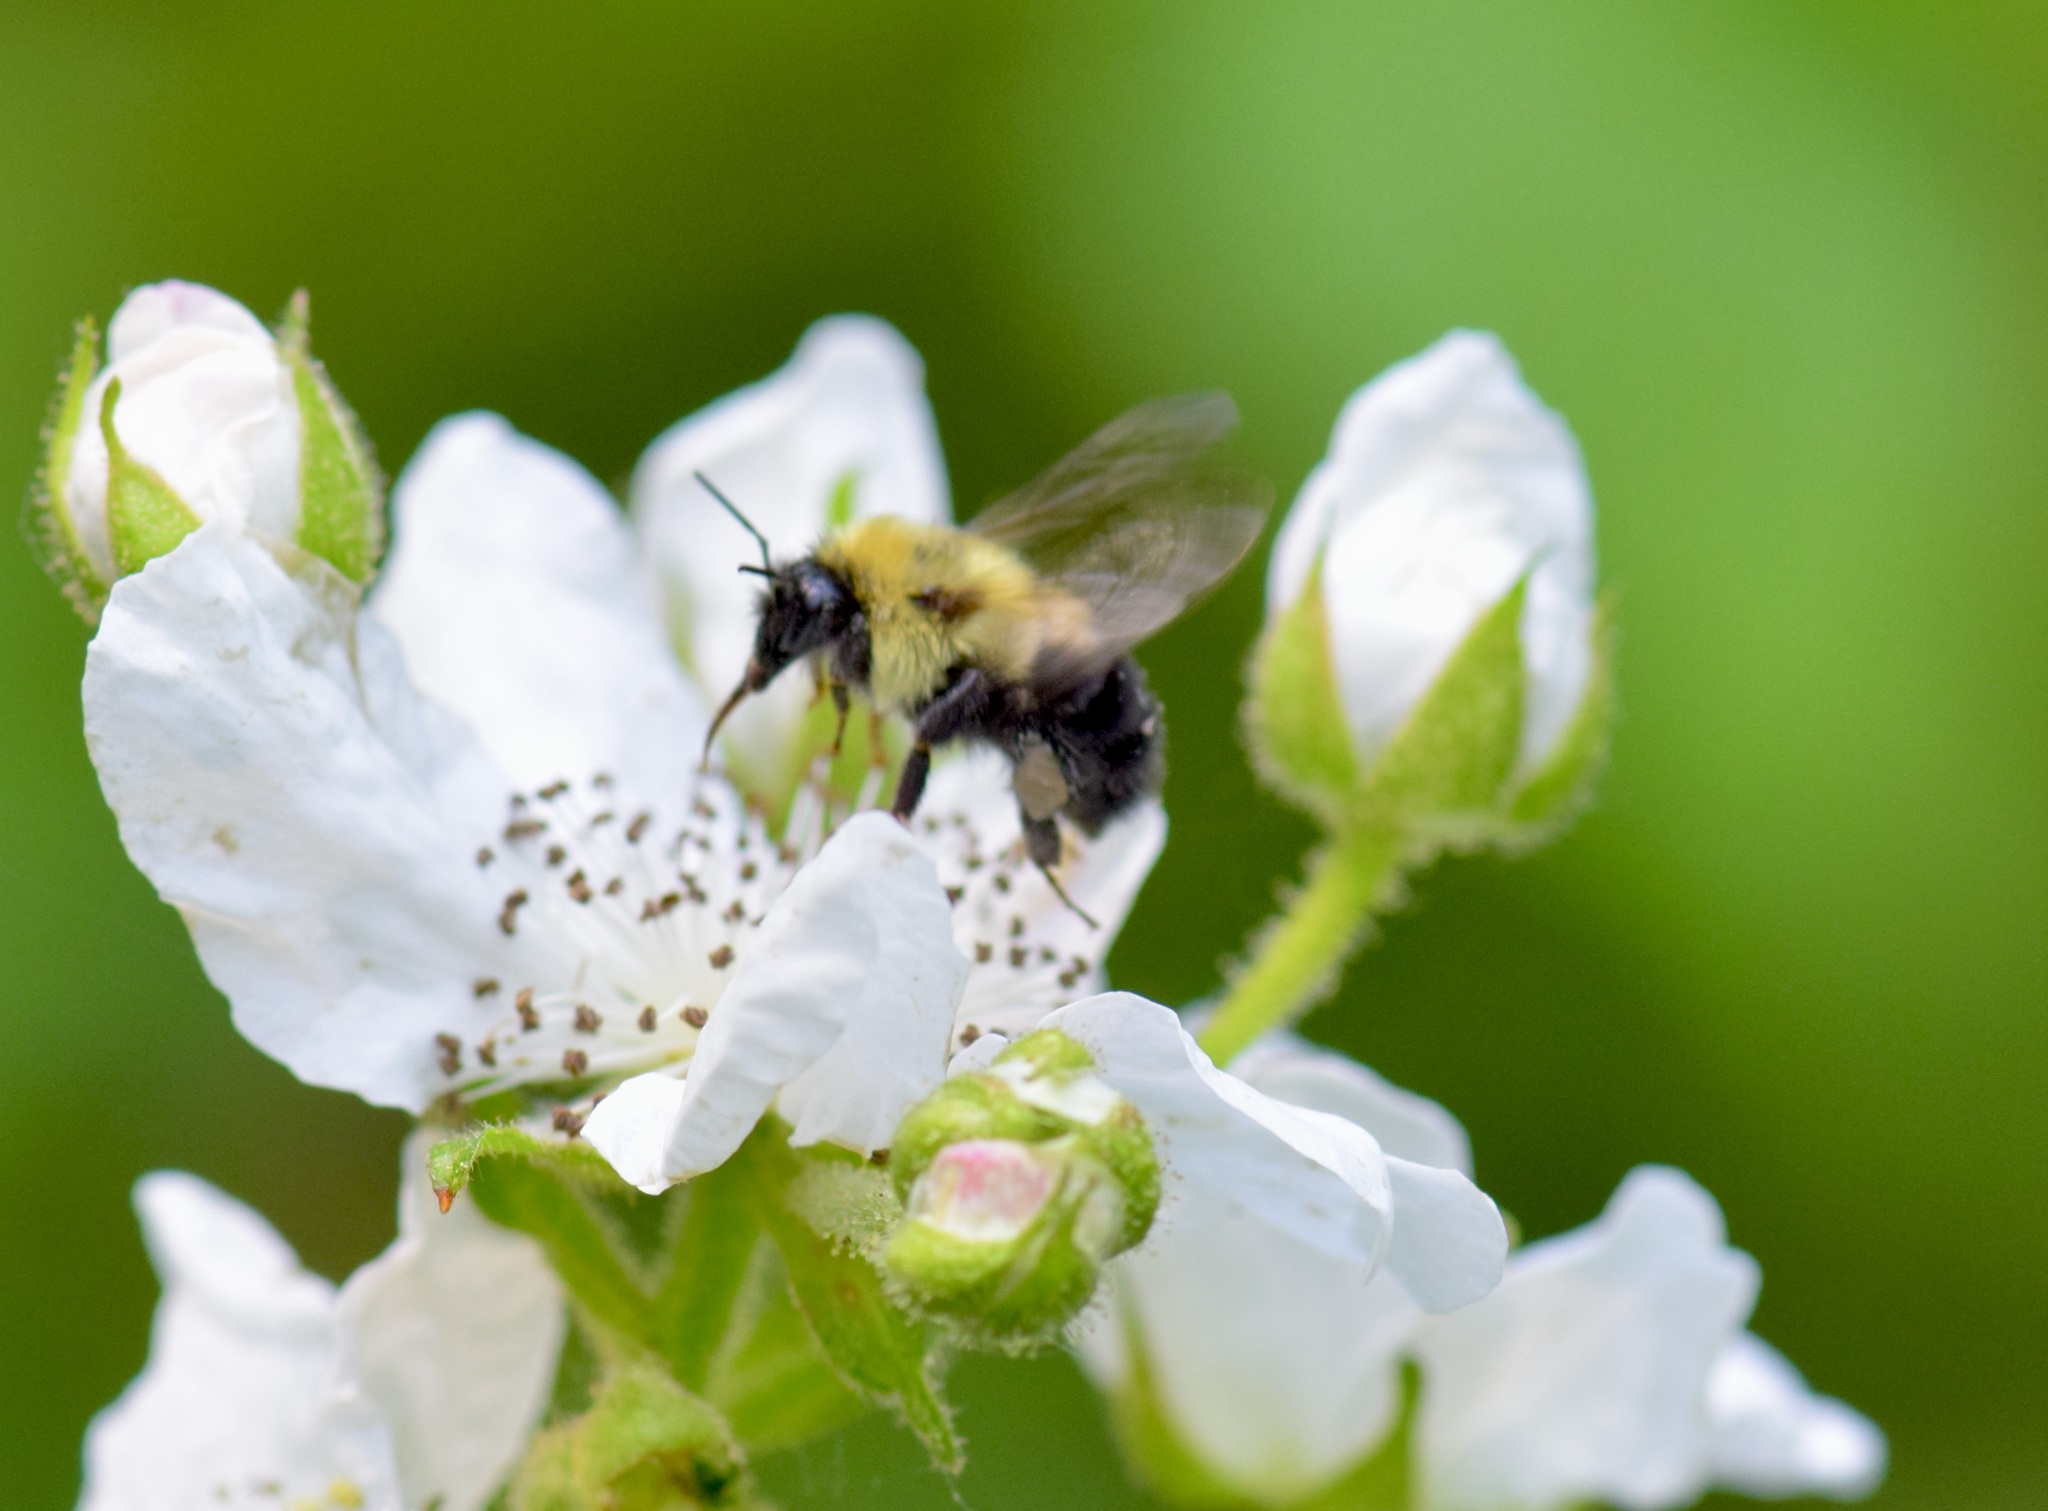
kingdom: Animalia
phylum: Arthropoda
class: Insecta
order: Hymenoptera
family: Apidae
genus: Bombus
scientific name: Bombus bimaculatus
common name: Two-spotted bumble bee
